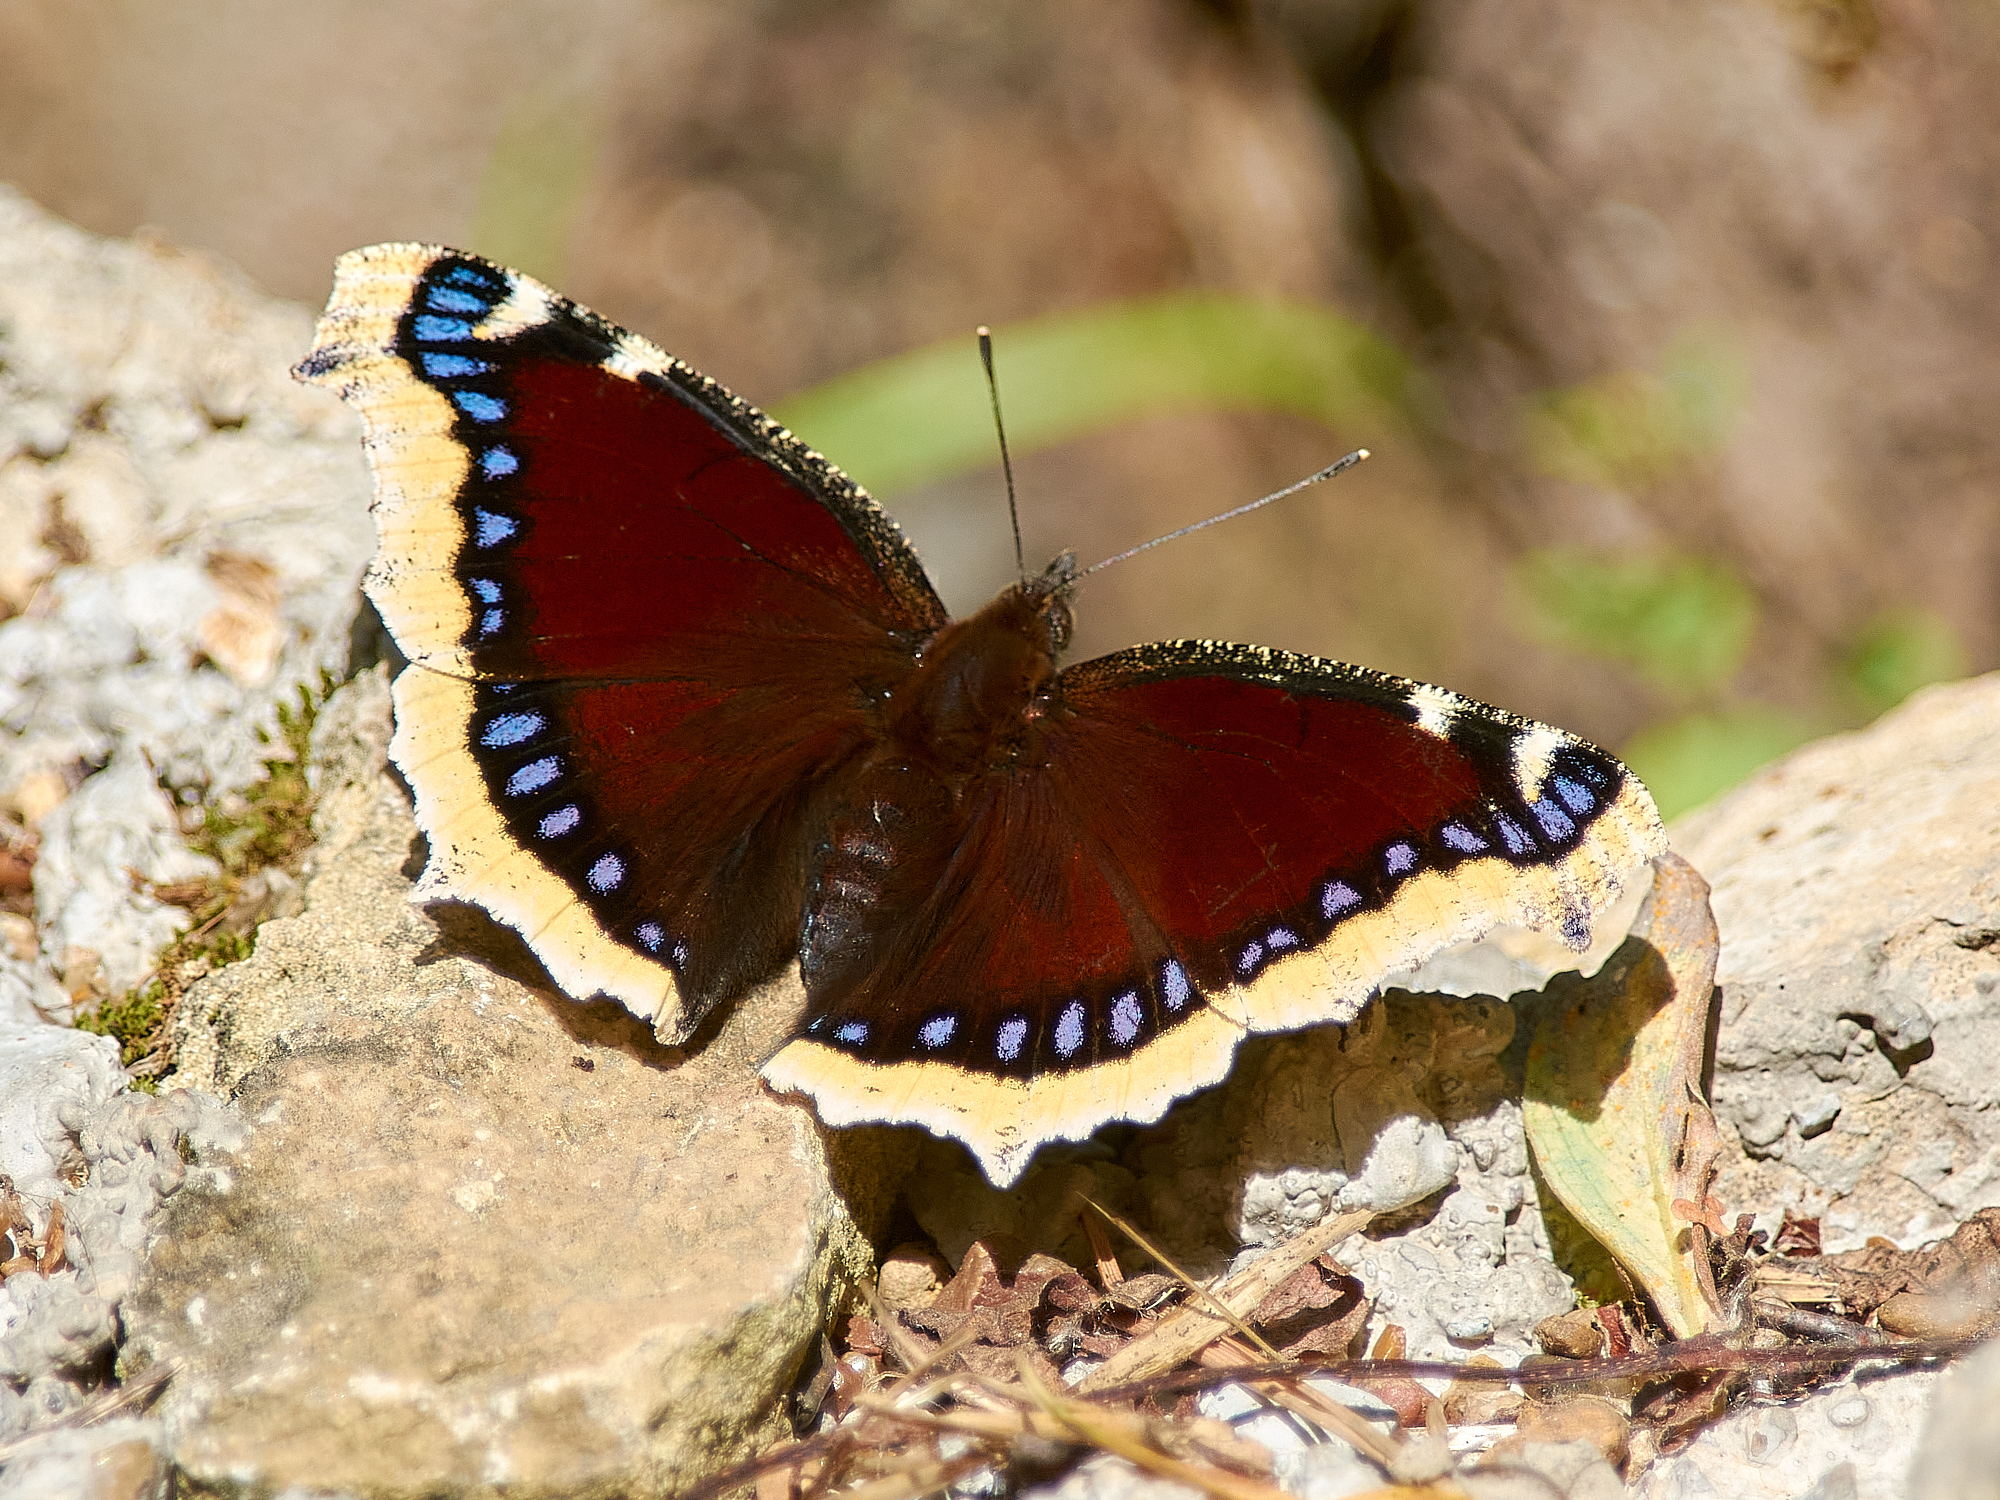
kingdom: Animalia
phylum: Arthropoda
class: Insecta
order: Lepidoptera
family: Nymphalidae
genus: Nymphalis
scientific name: Nymphalis antiopa
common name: Camberwell beauty
